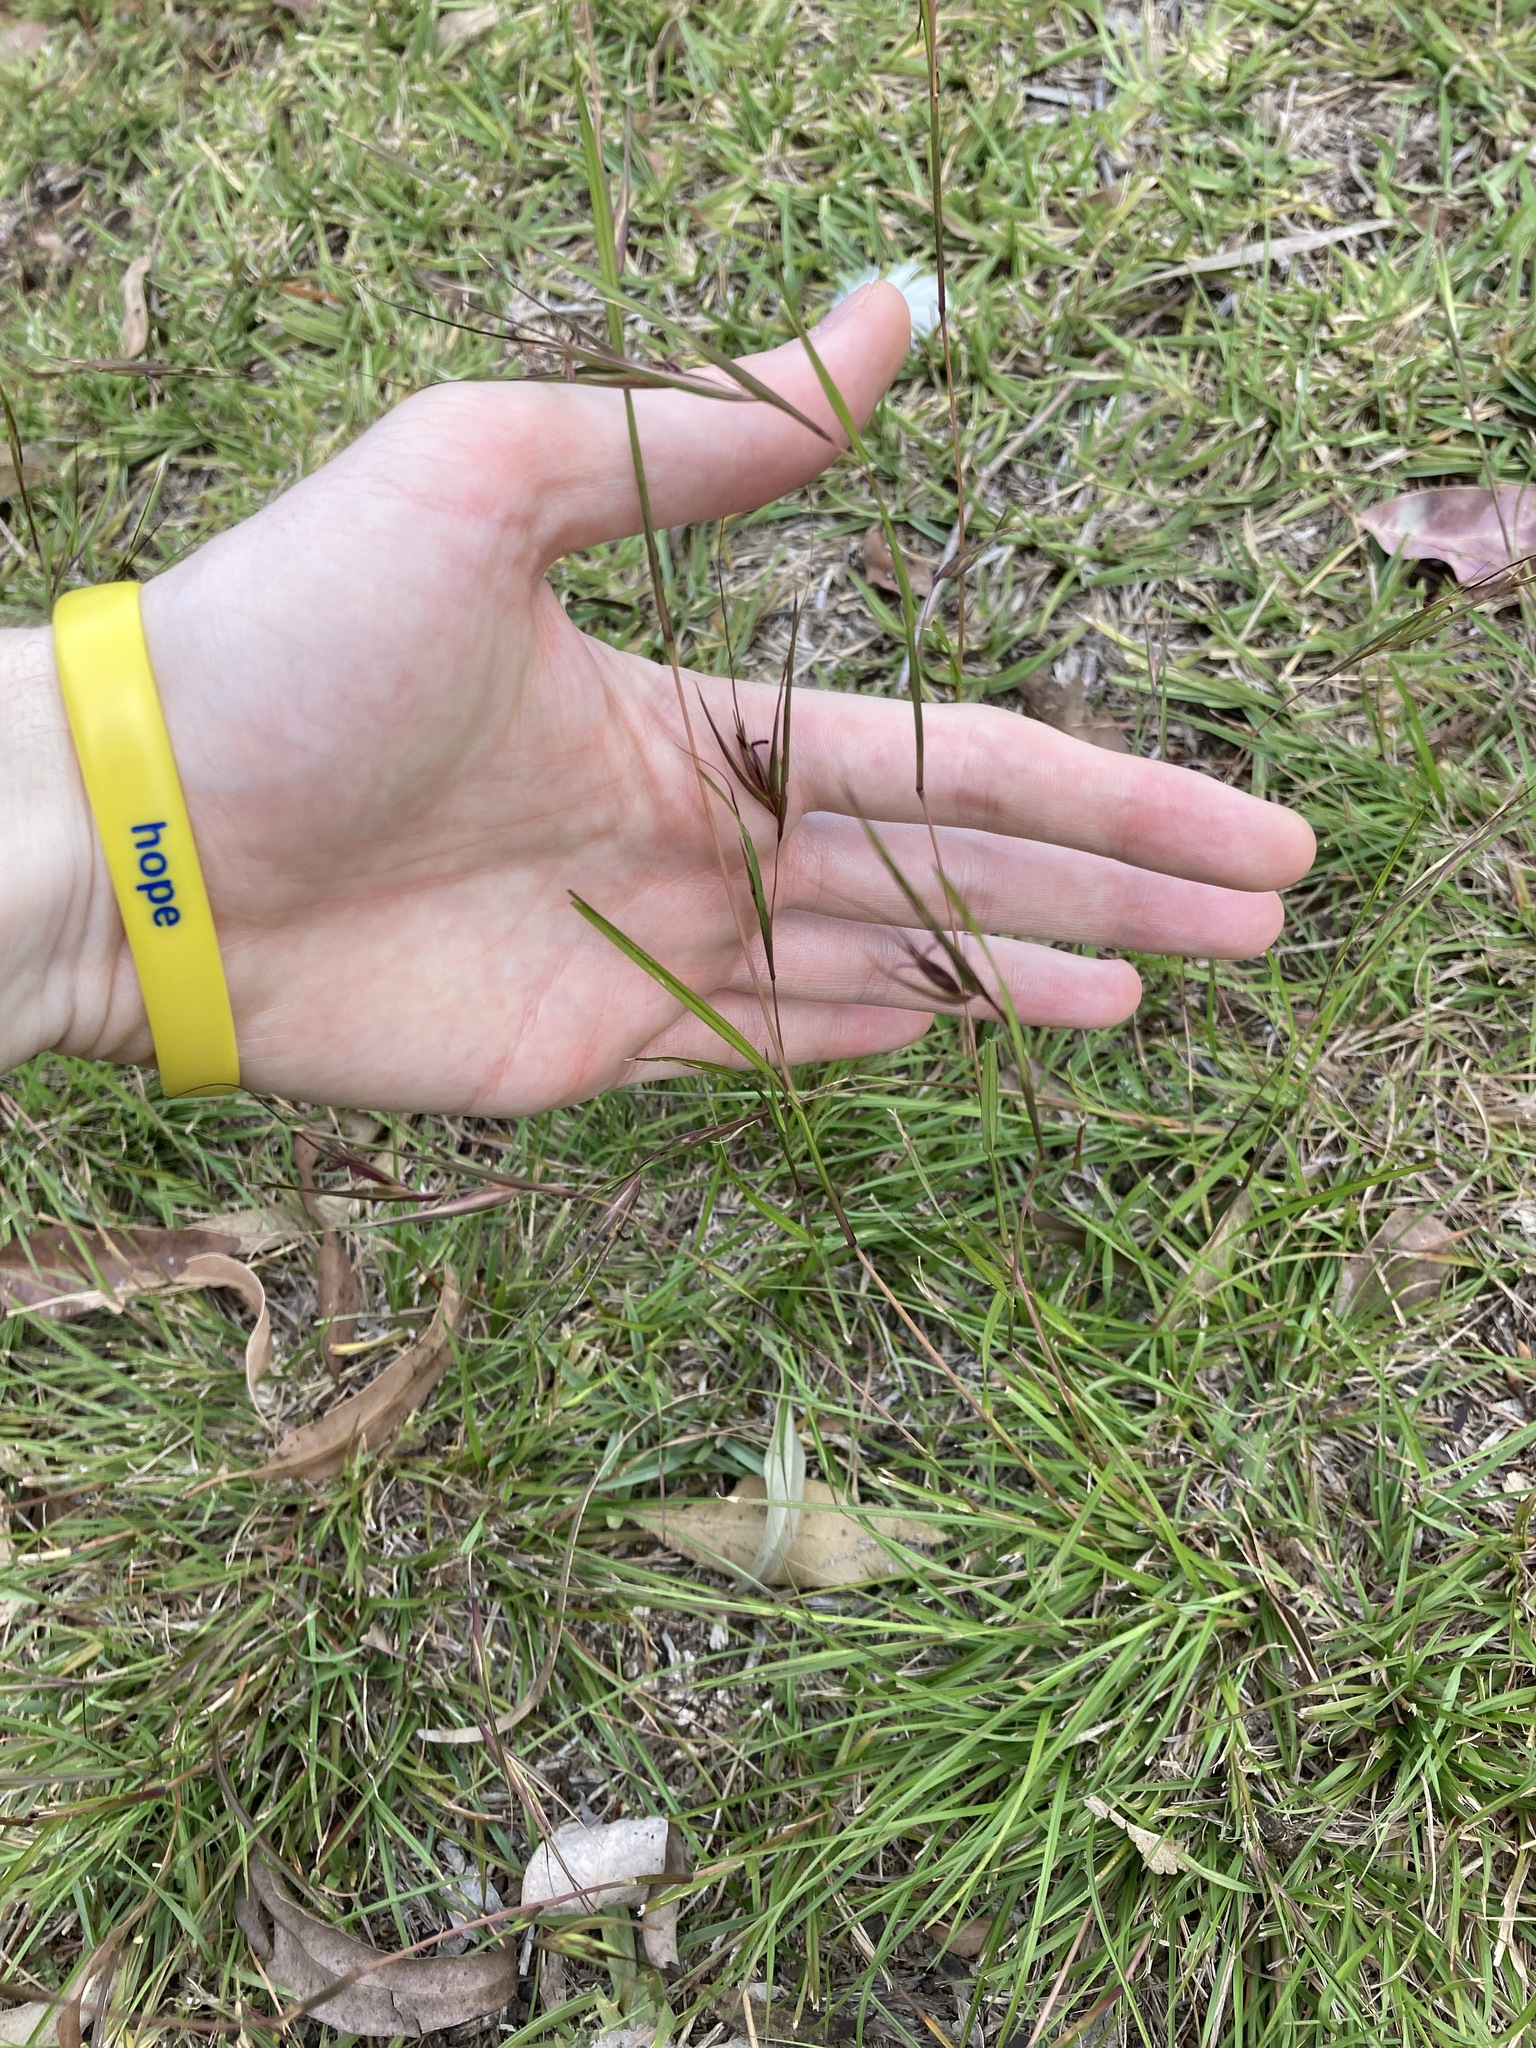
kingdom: Plantae
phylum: Tracheophyta
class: Liliopsida
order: Poales
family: Poaceae
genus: Themeda
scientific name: Themeda triandra
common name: Kangaroo grass
